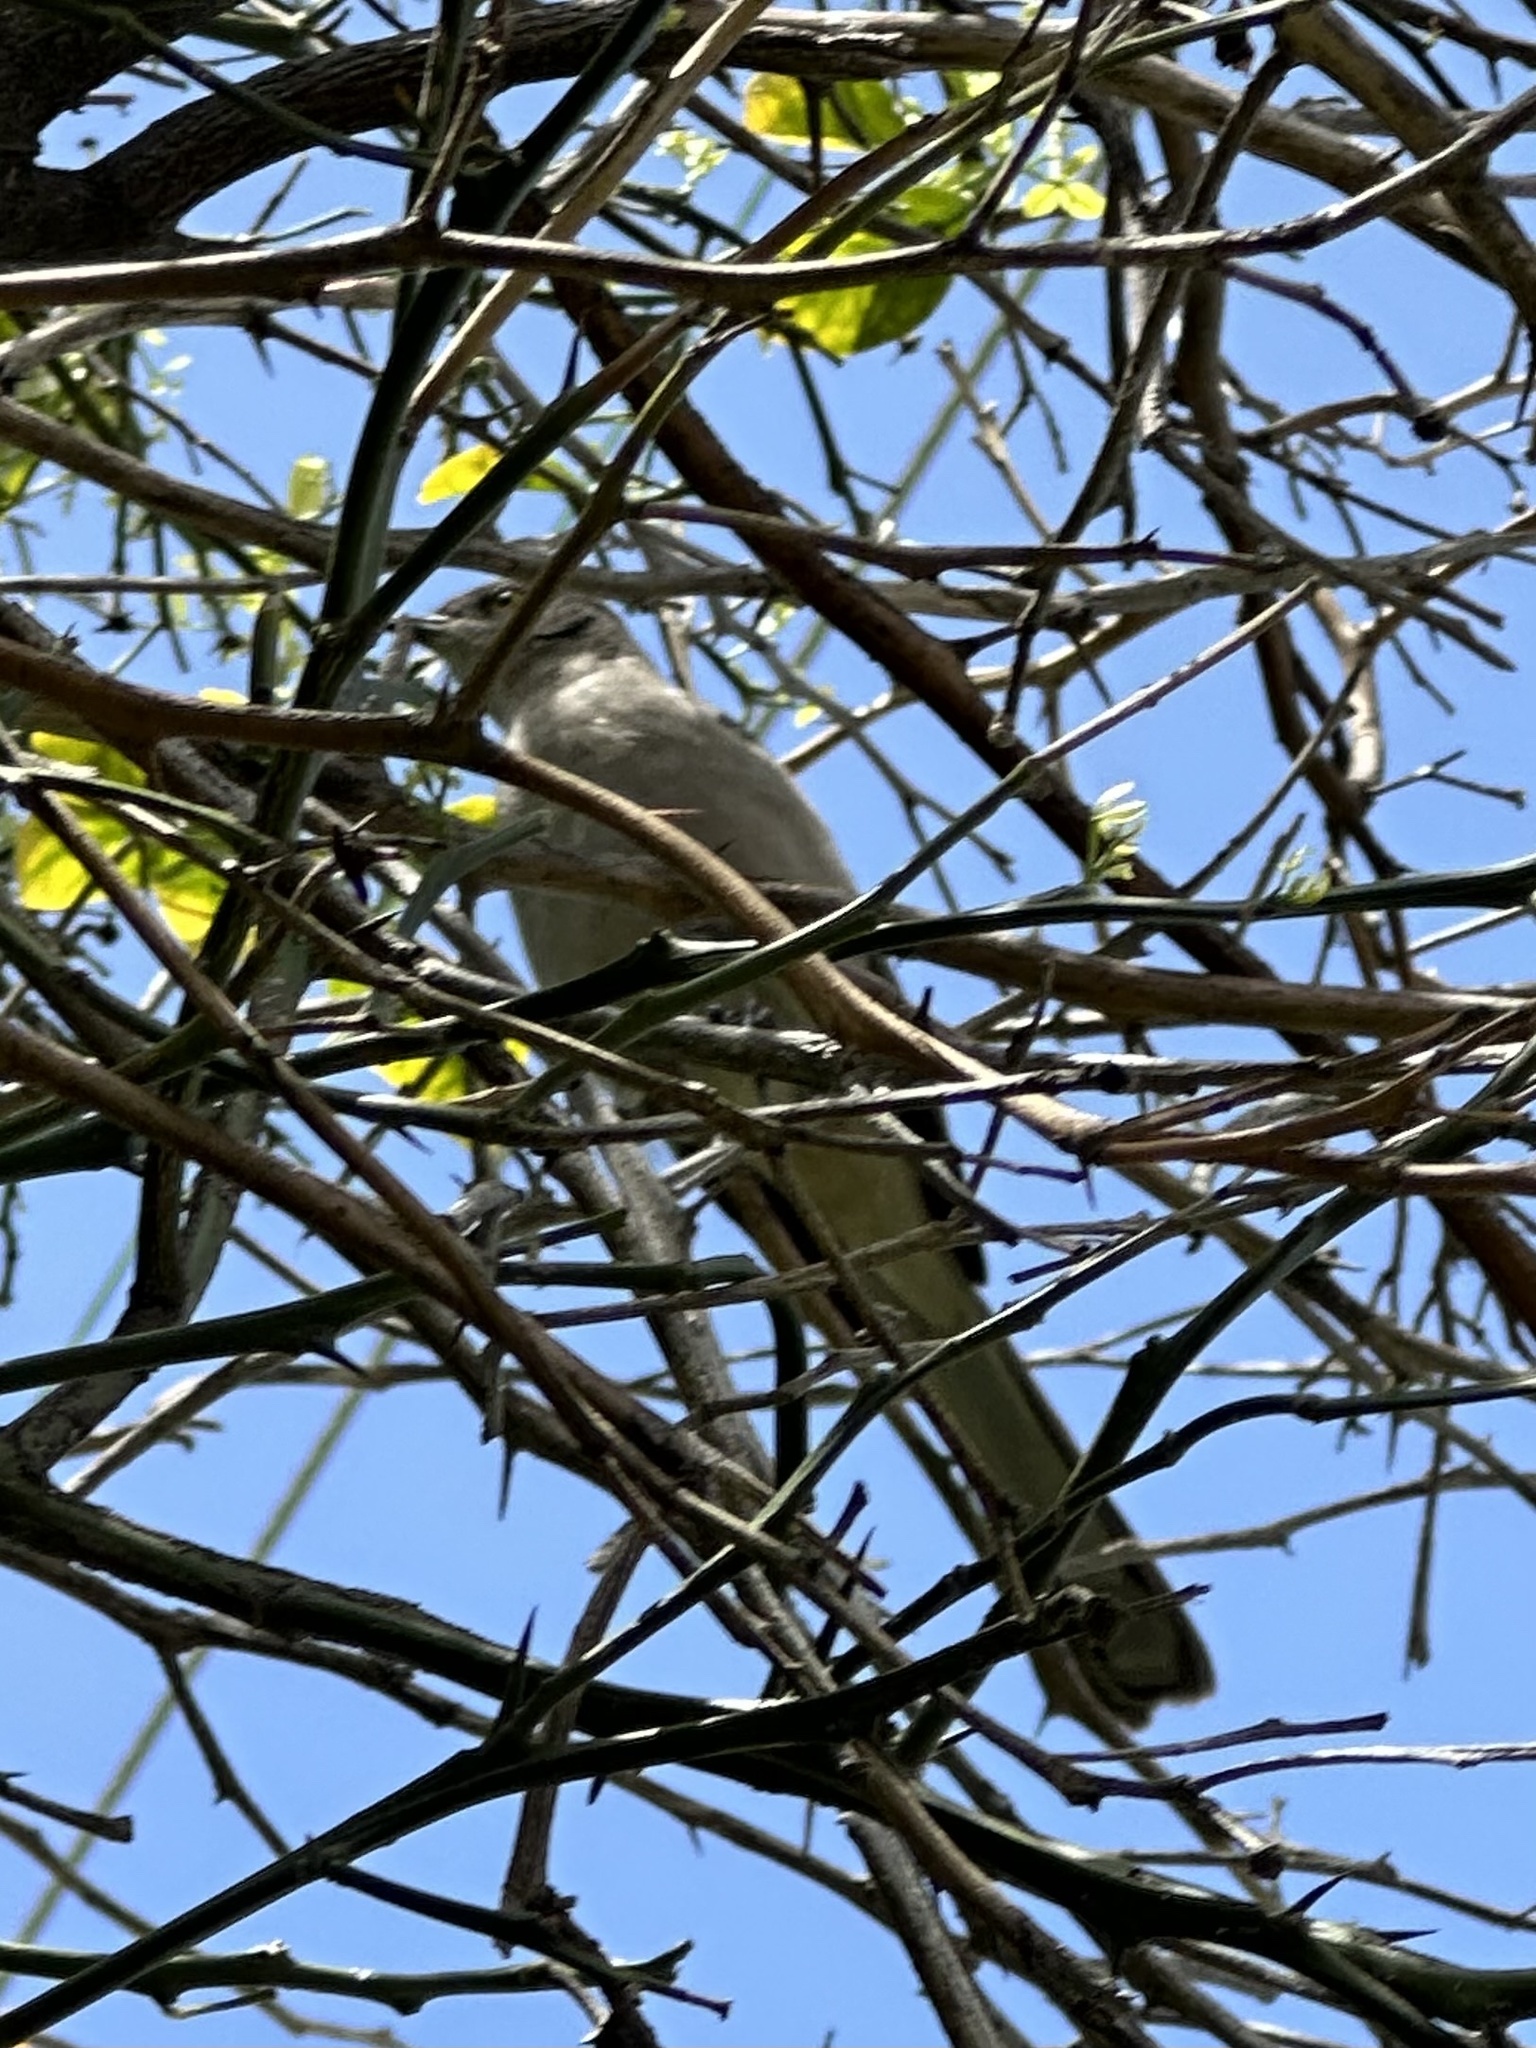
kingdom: Animalia
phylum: Chordata
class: Aves
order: Passeriformes
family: Mimidae
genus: Mimus
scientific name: Mimus polyglottos
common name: Northern mockingbird
